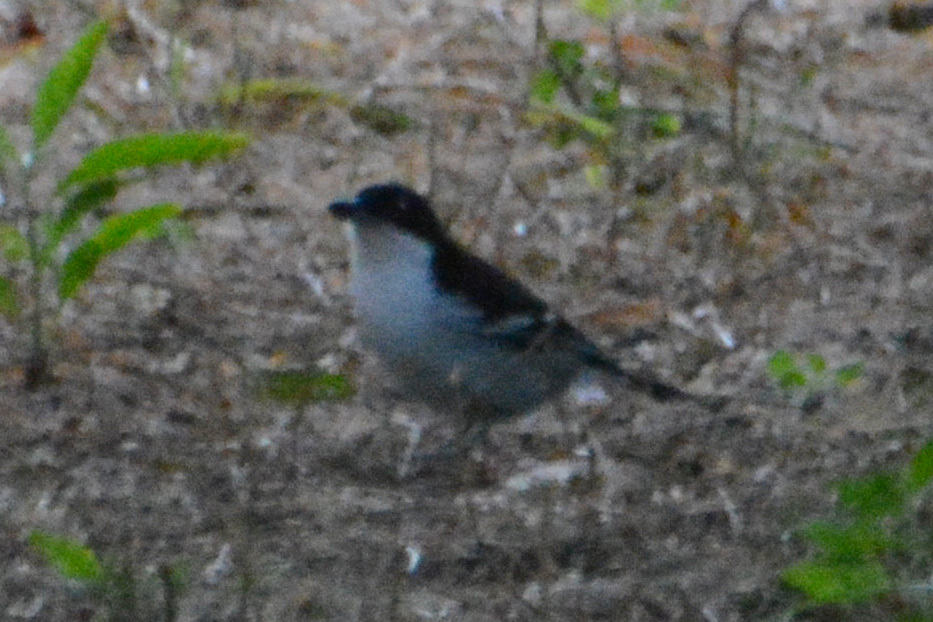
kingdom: Animalia
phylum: Chordata
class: Aves
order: Passeriformes
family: Thamnophilidae
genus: Taraba
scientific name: Taraba major
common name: Great antshrike
